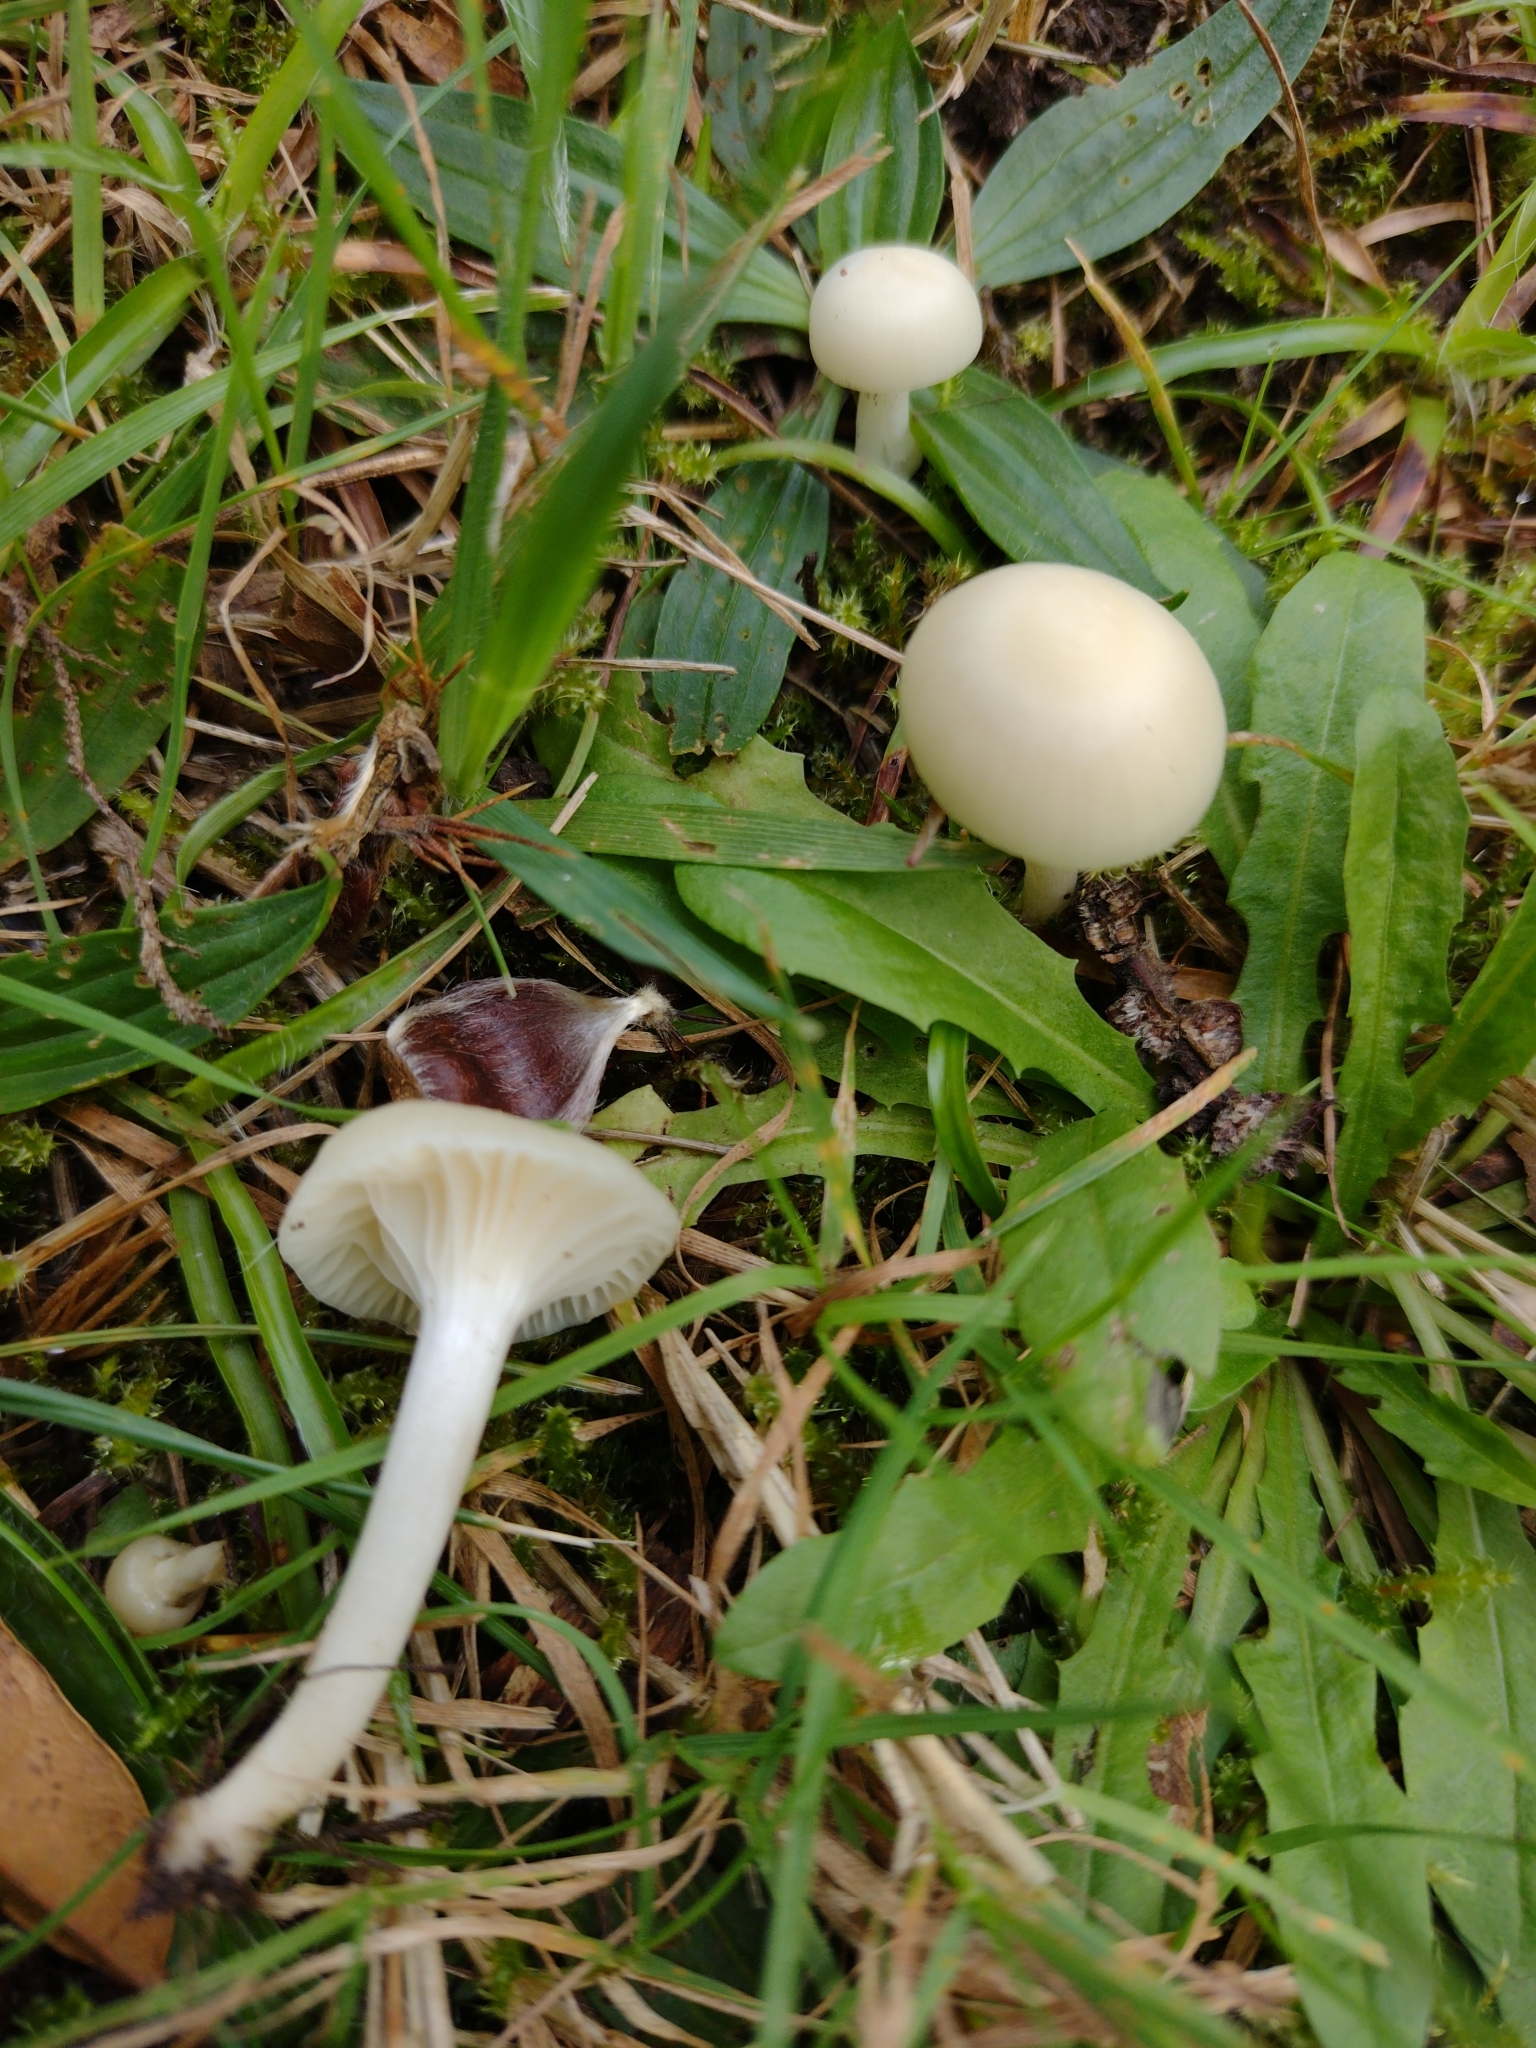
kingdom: Fungi
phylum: Basidiomycota
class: Agaricomycetes
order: Agaricales
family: Hygrophoraceae
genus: Cuphophyllus
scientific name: Cuphophyllus virgineus
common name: Snowy waxcap
